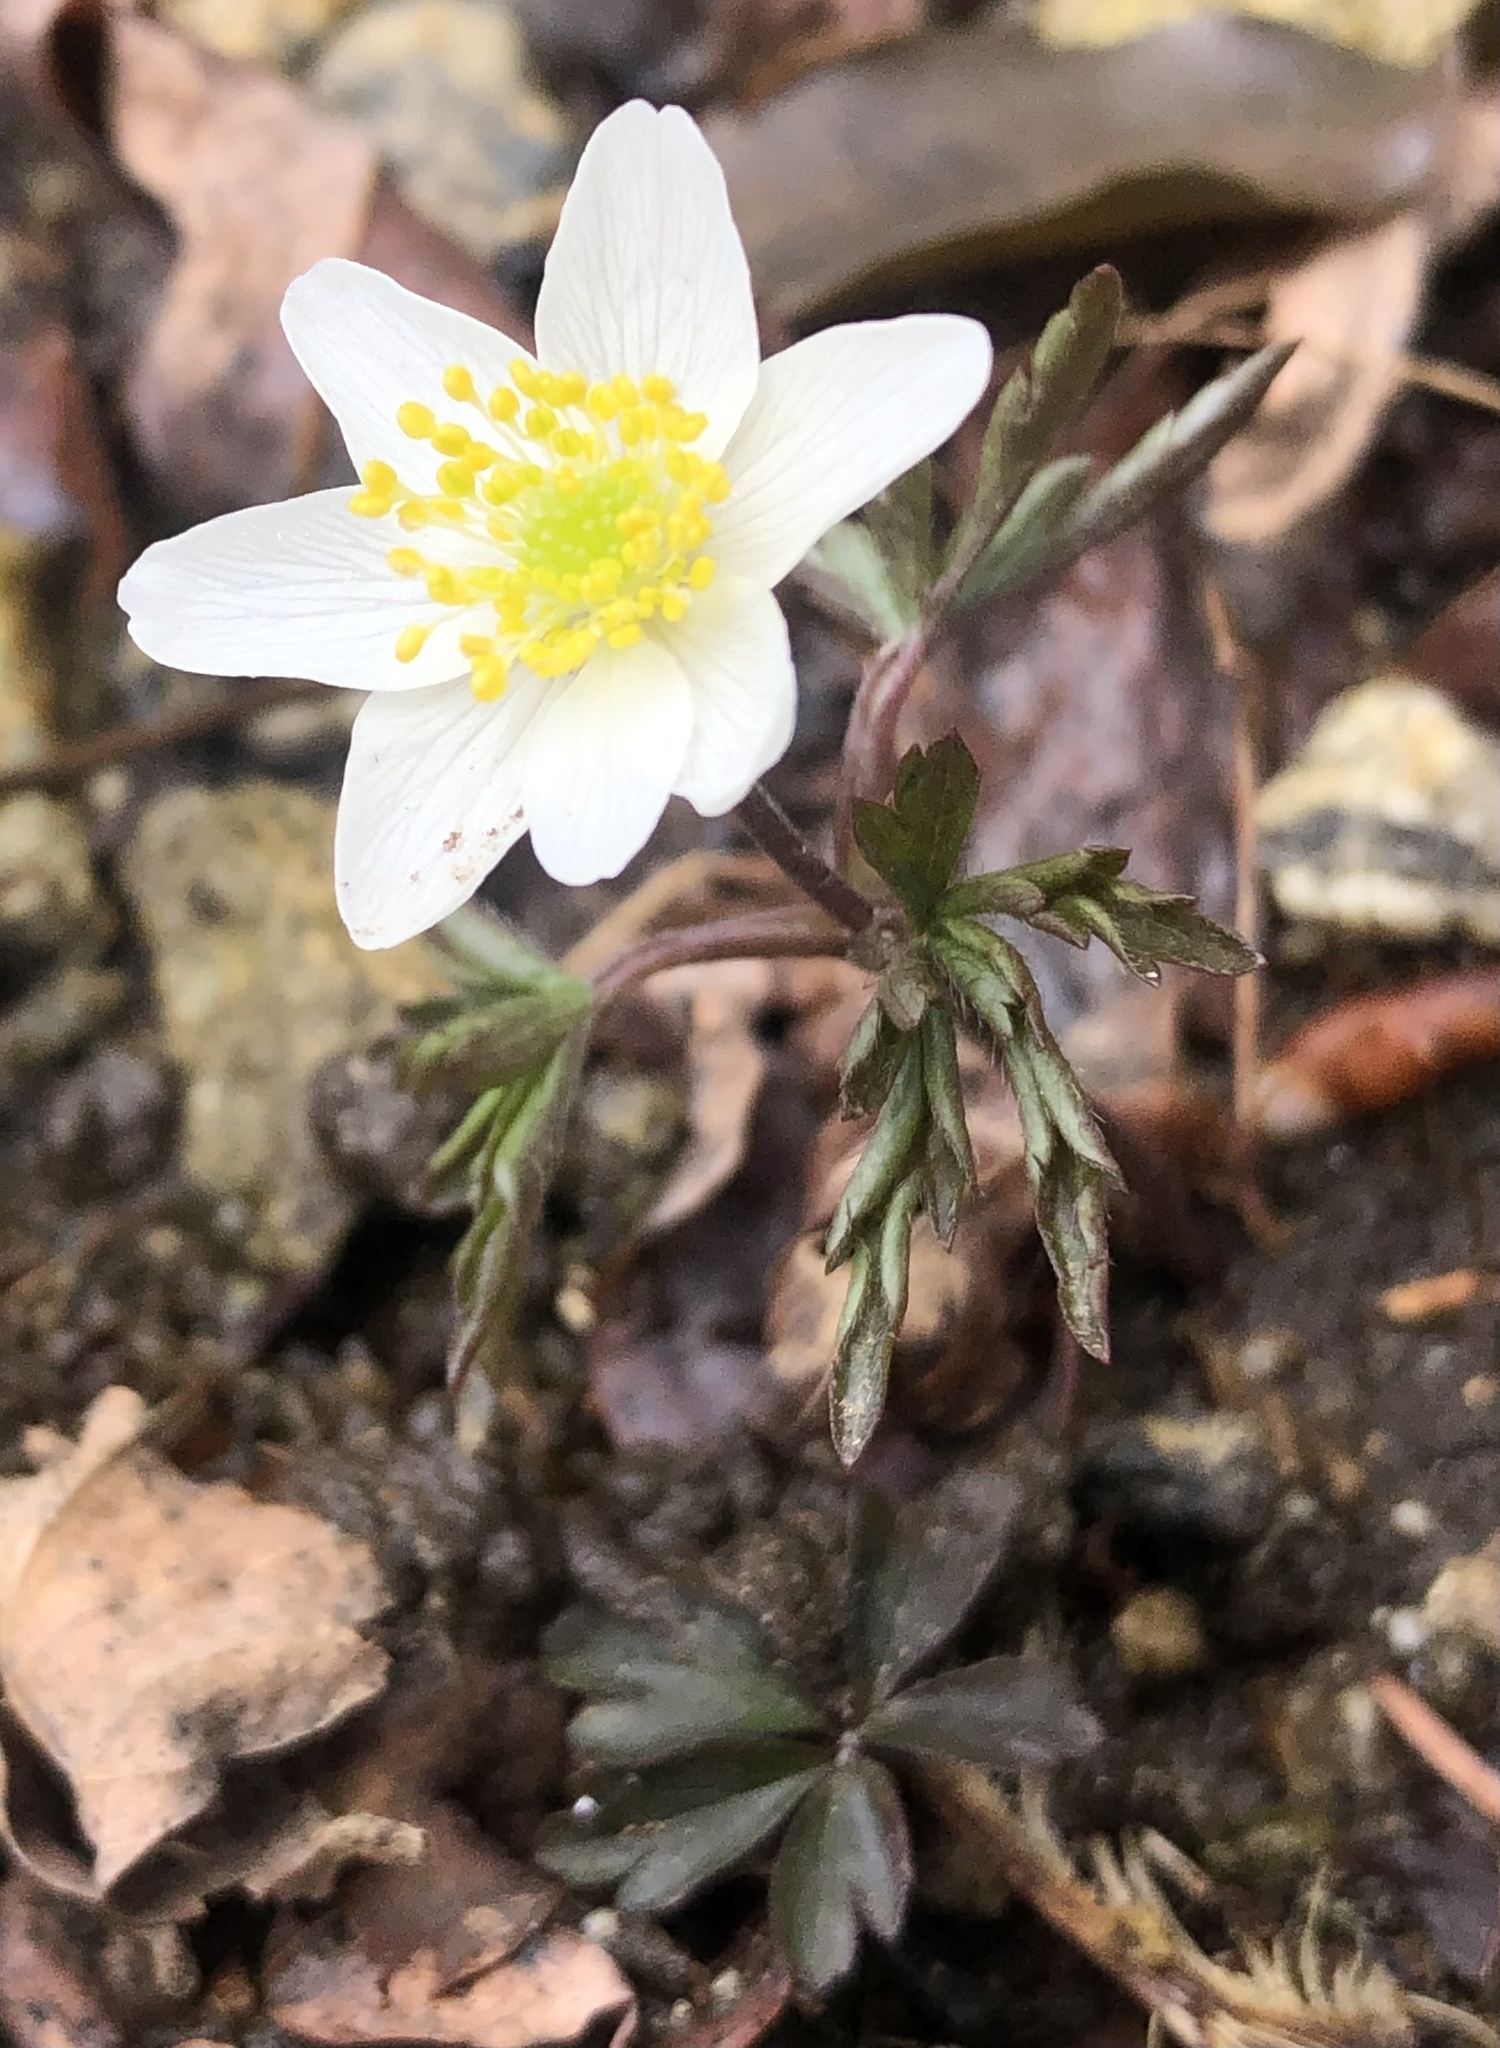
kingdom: Plantae
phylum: Tracheophyta
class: Magnoliopsida
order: Ranunculales
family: Ranunculaceae
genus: Anemone
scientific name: Anemone nemorosa
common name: Wood anemone
